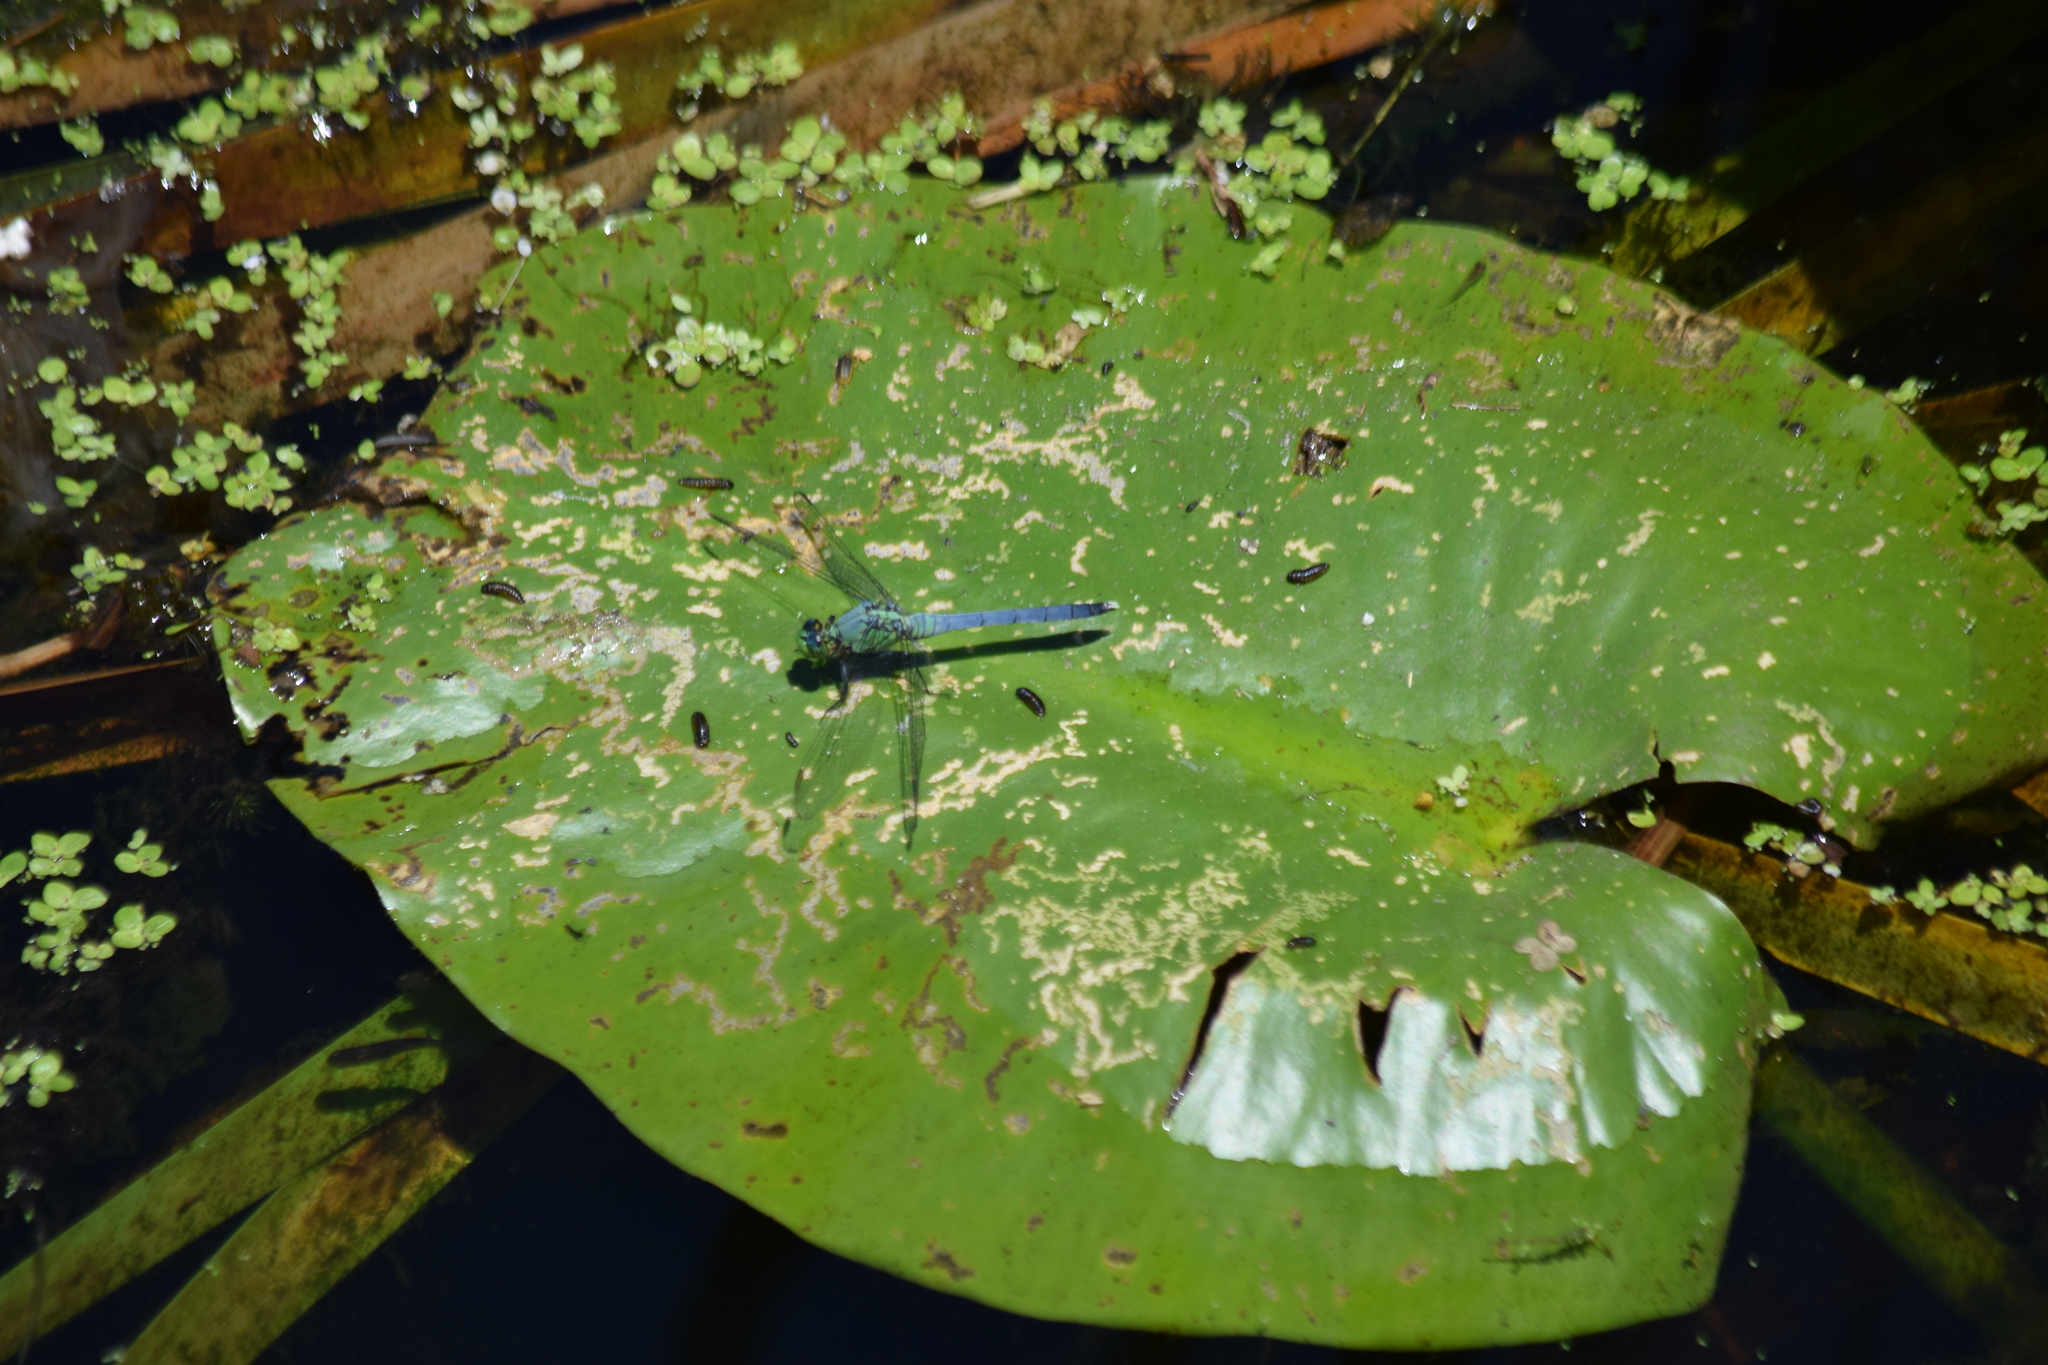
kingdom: Animalia
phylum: Arthropoda
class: Insecta
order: Odonata
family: Libellulidae
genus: Erythemis
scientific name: Erythemis simplicicollis
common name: Eastern pondhawk
